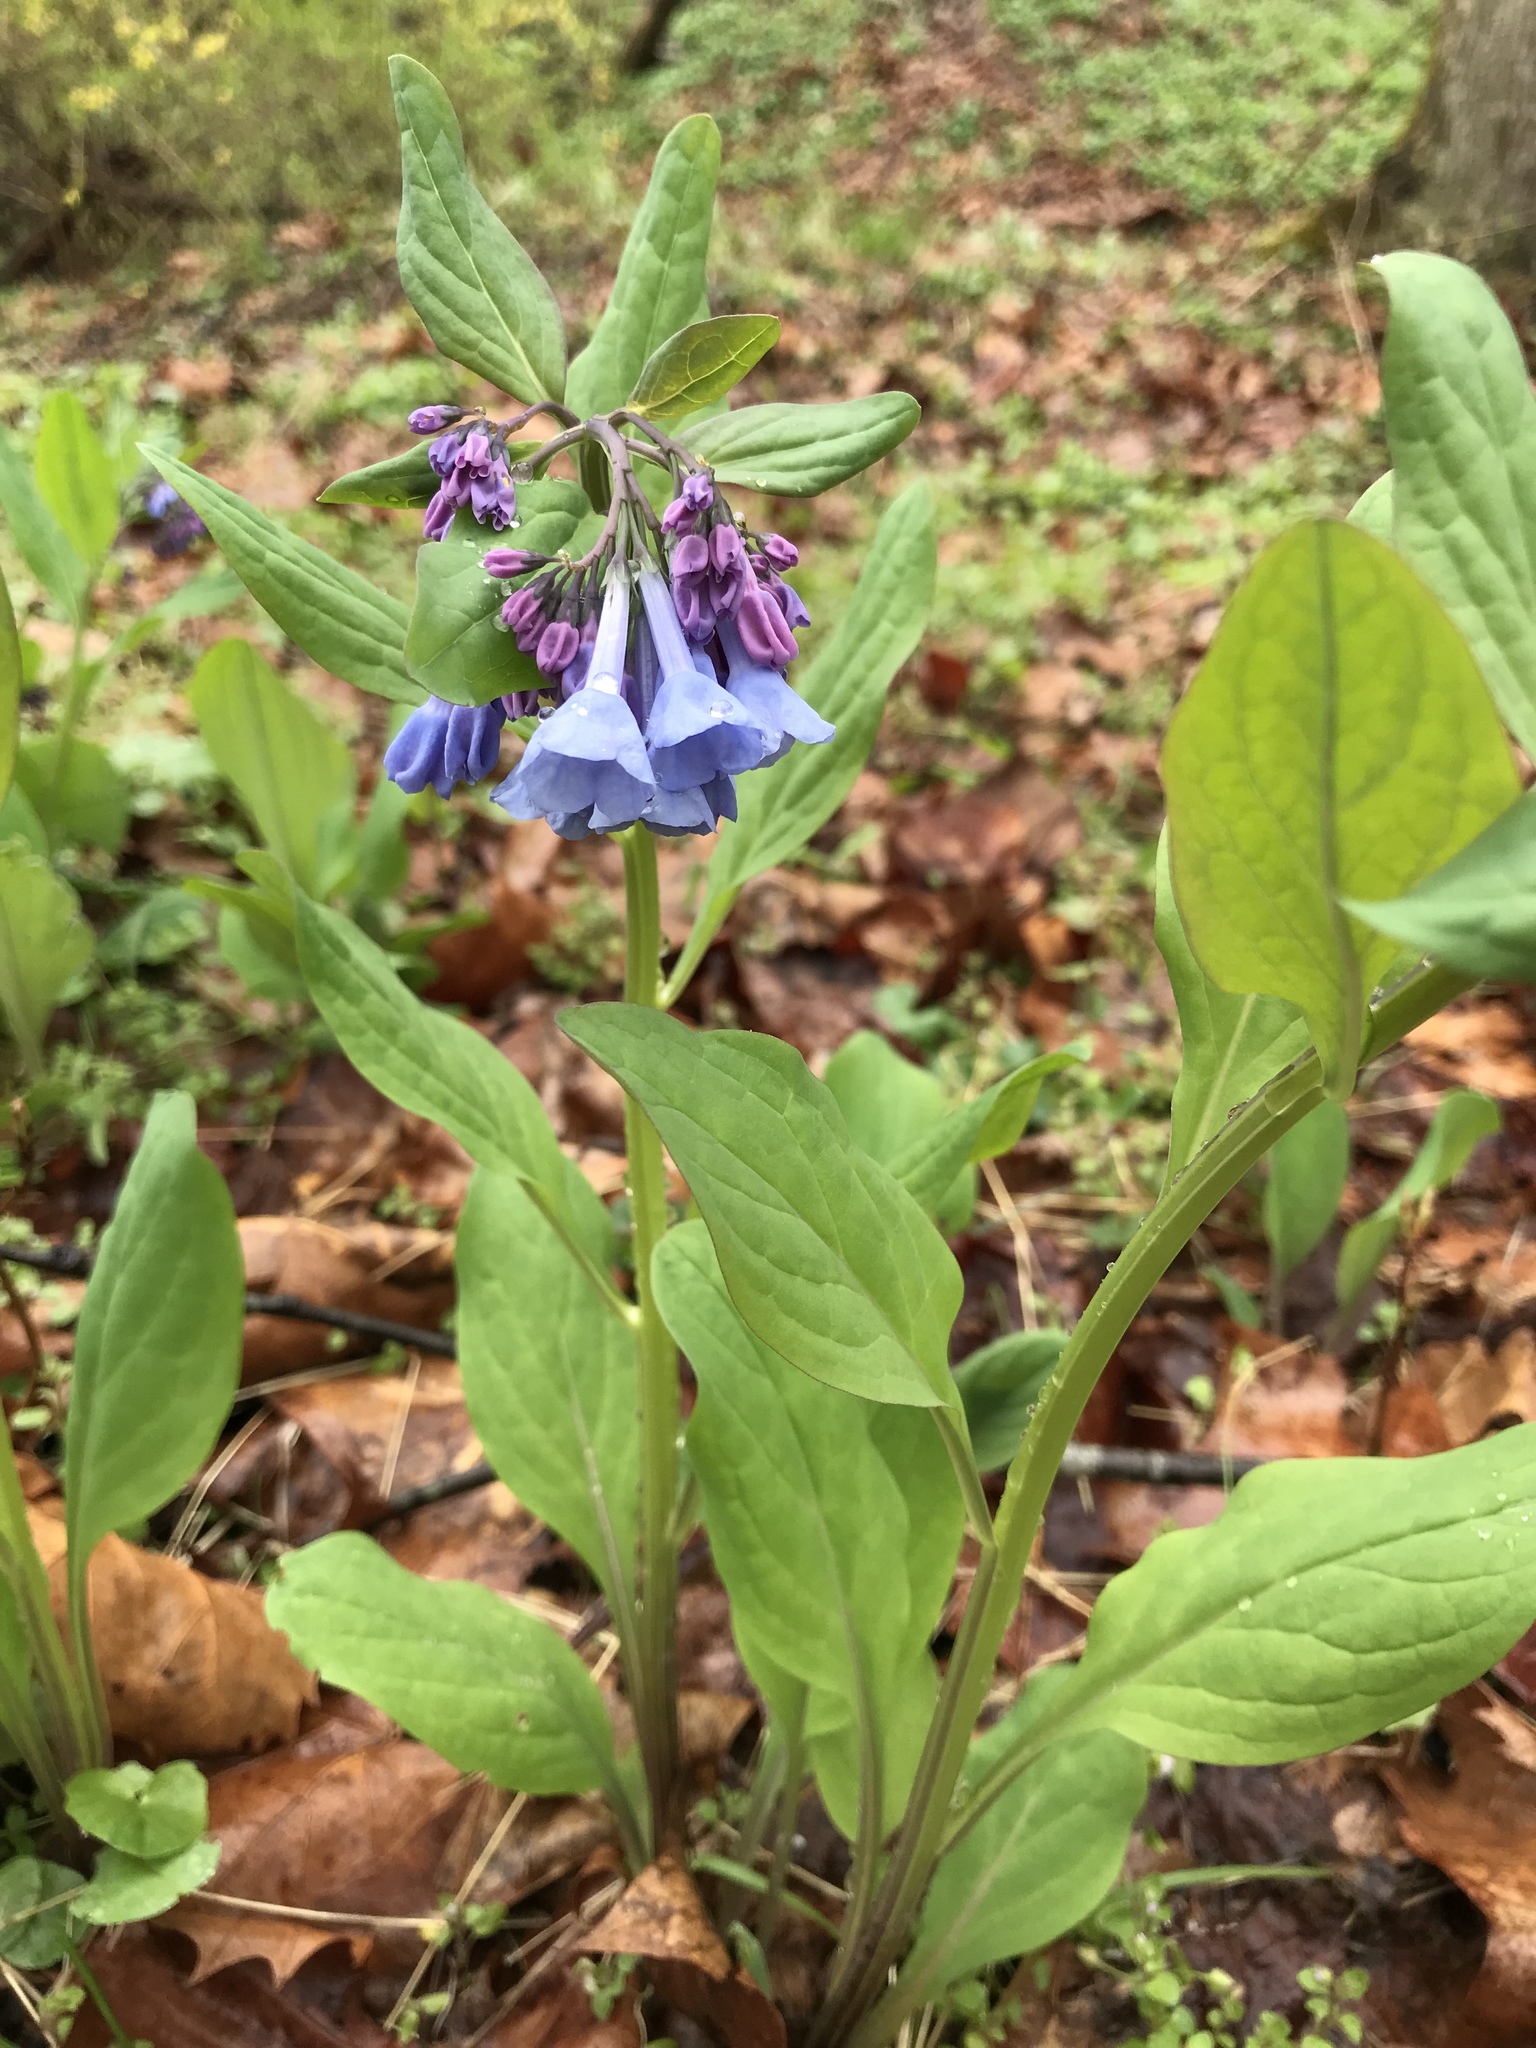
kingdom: Plantae
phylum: Tracheophyta
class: Magnoliopsida
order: Boraginales
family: Boraginaceae
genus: Mertensia
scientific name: Mertensia virginica
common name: Virginia bluebells
